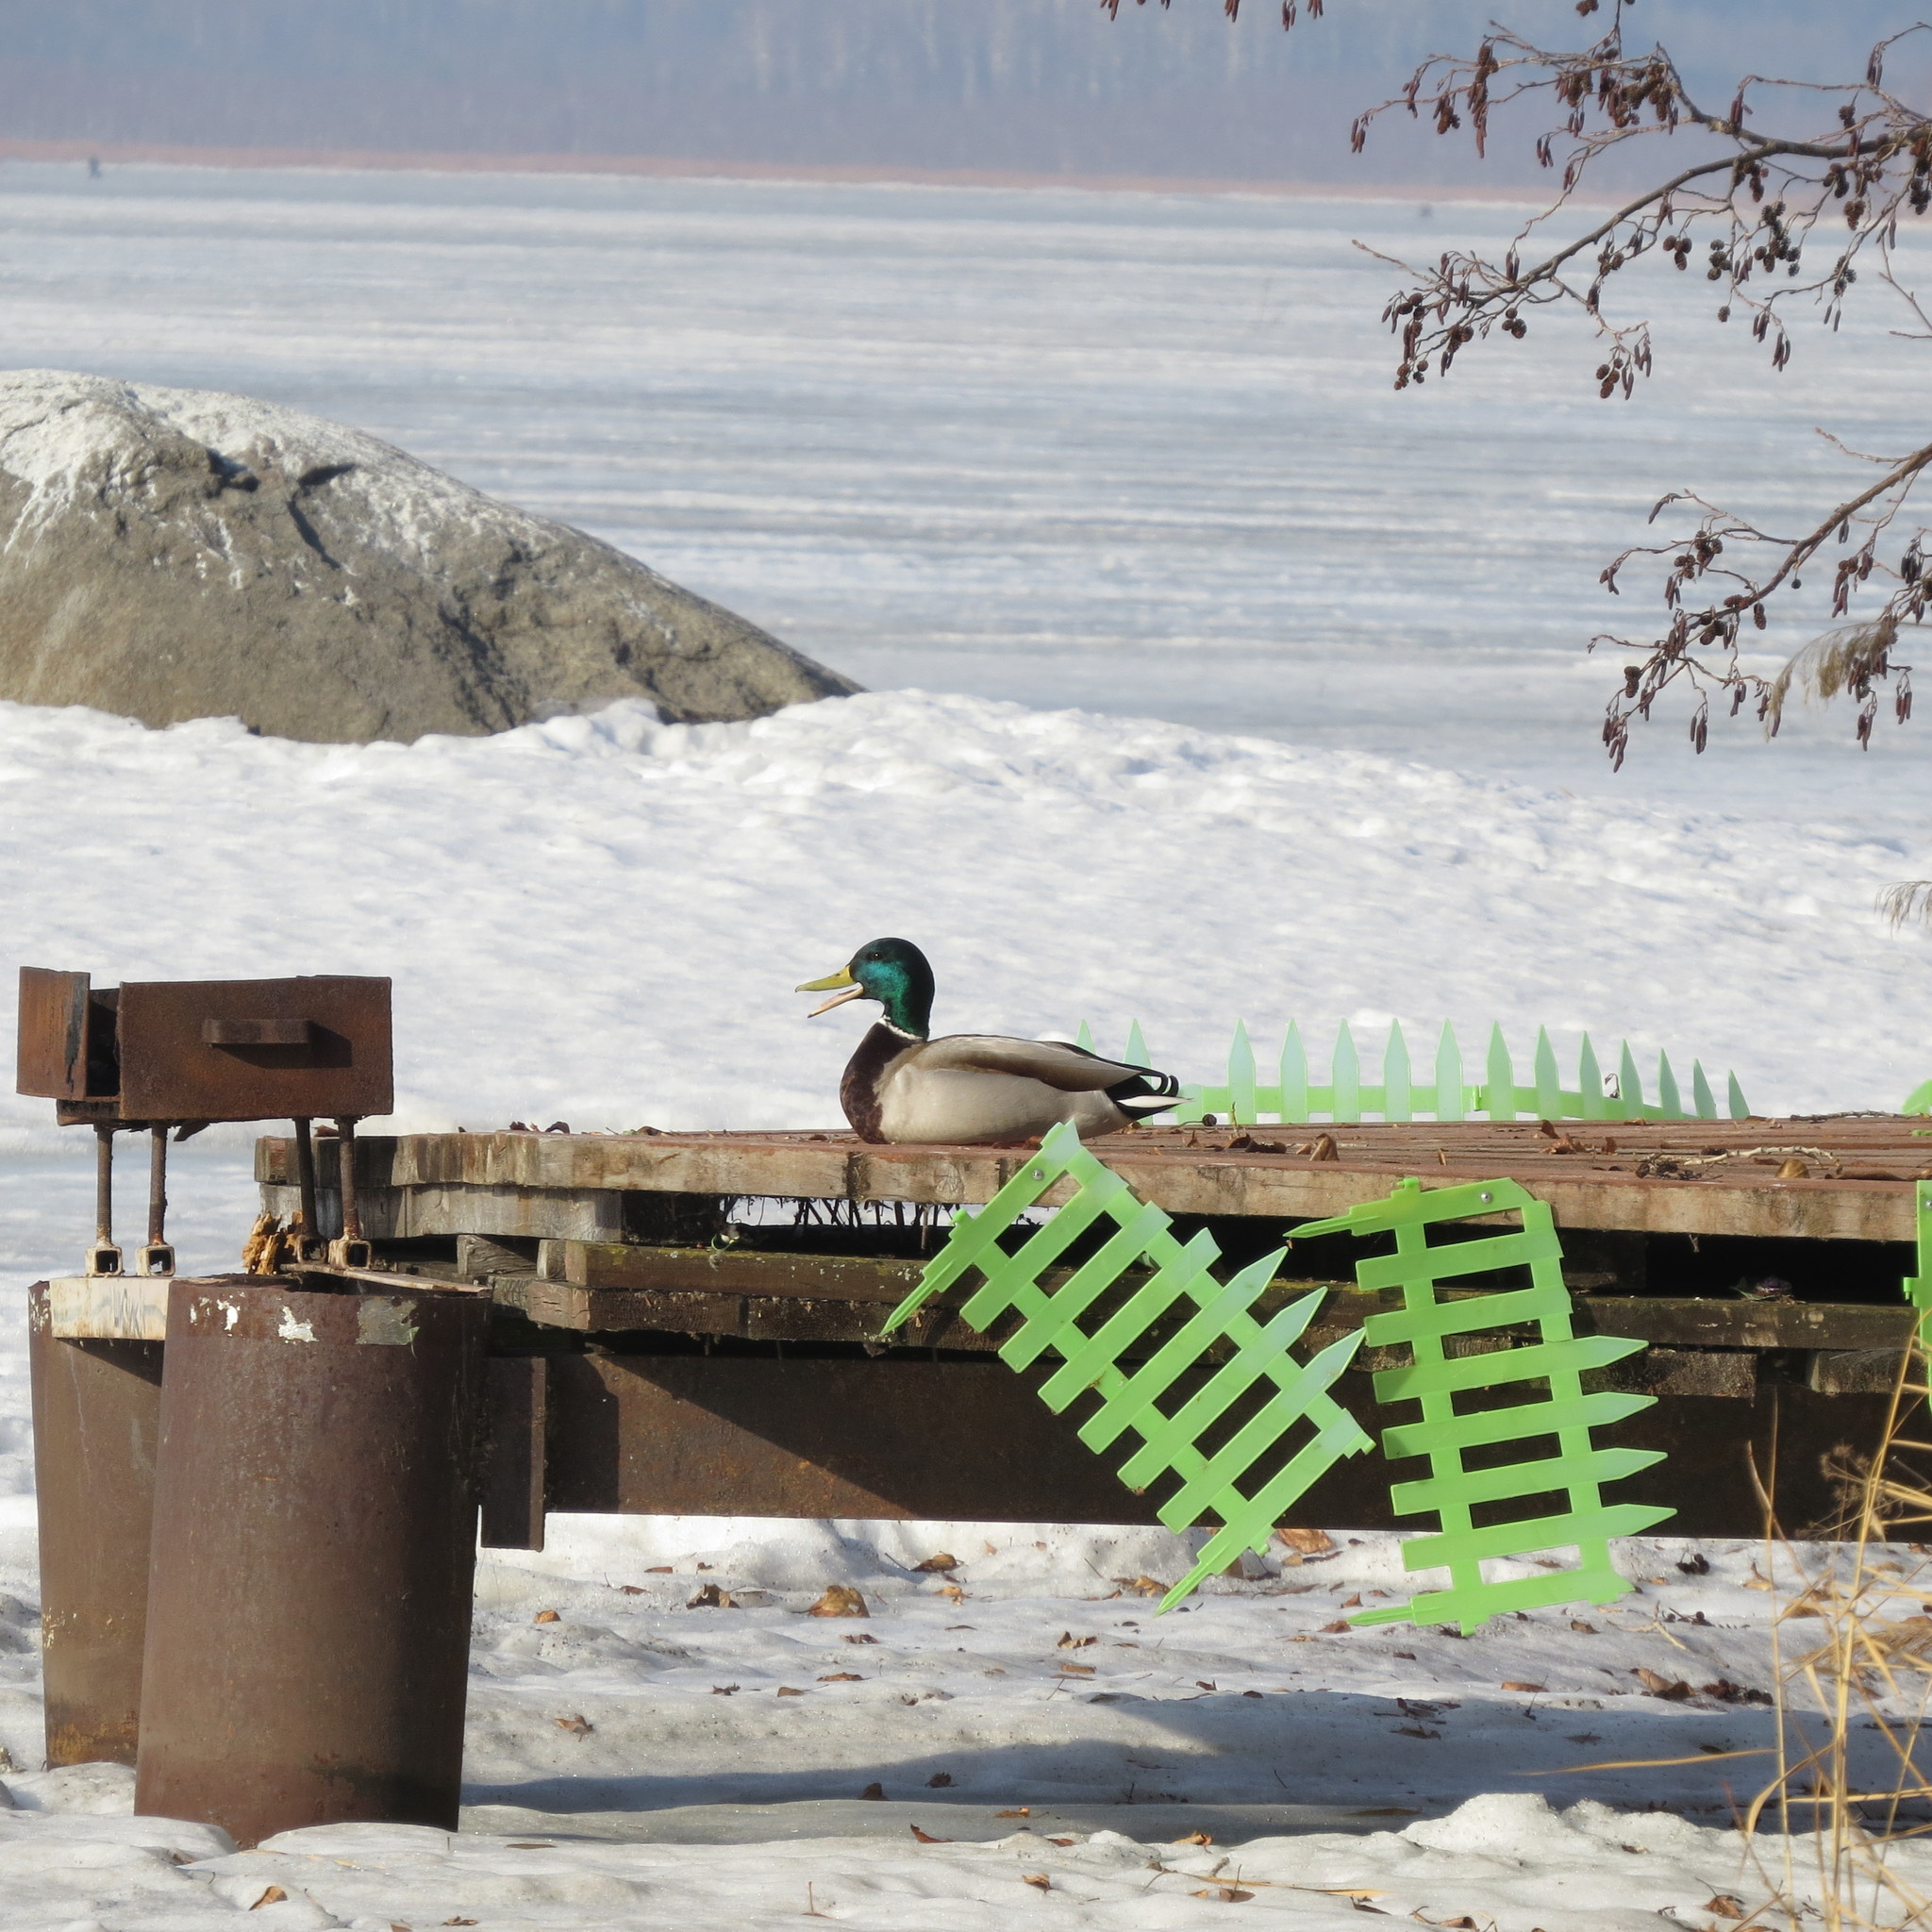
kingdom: Animalia
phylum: Chordata
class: Aves
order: Anseriformes
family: Anatidae
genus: Anas
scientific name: Anas platyrhynchos
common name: Mallard
